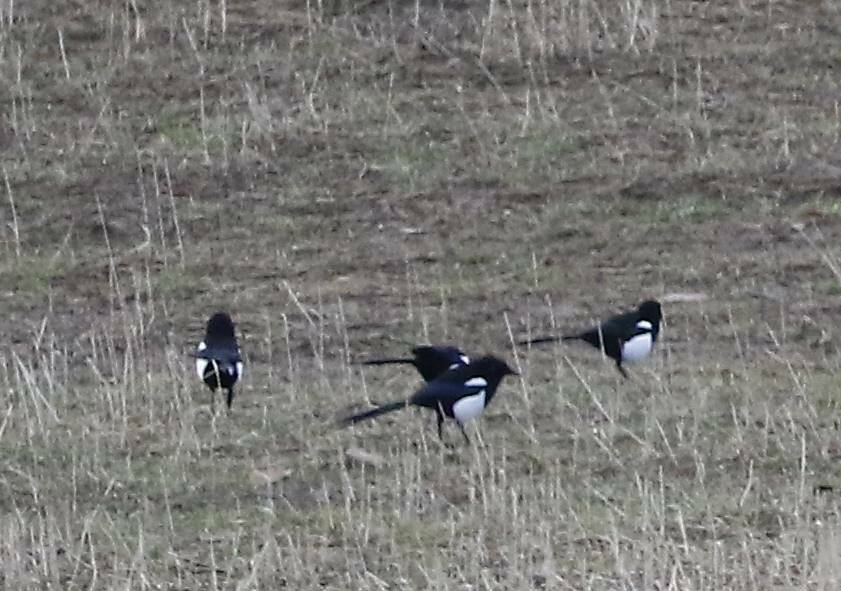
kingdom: Animalia
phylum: Chordata
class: Aves
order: Passeriformes
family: Corvidae
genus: Pica
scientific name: Pica mauritanica
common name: Maghreb magpie
